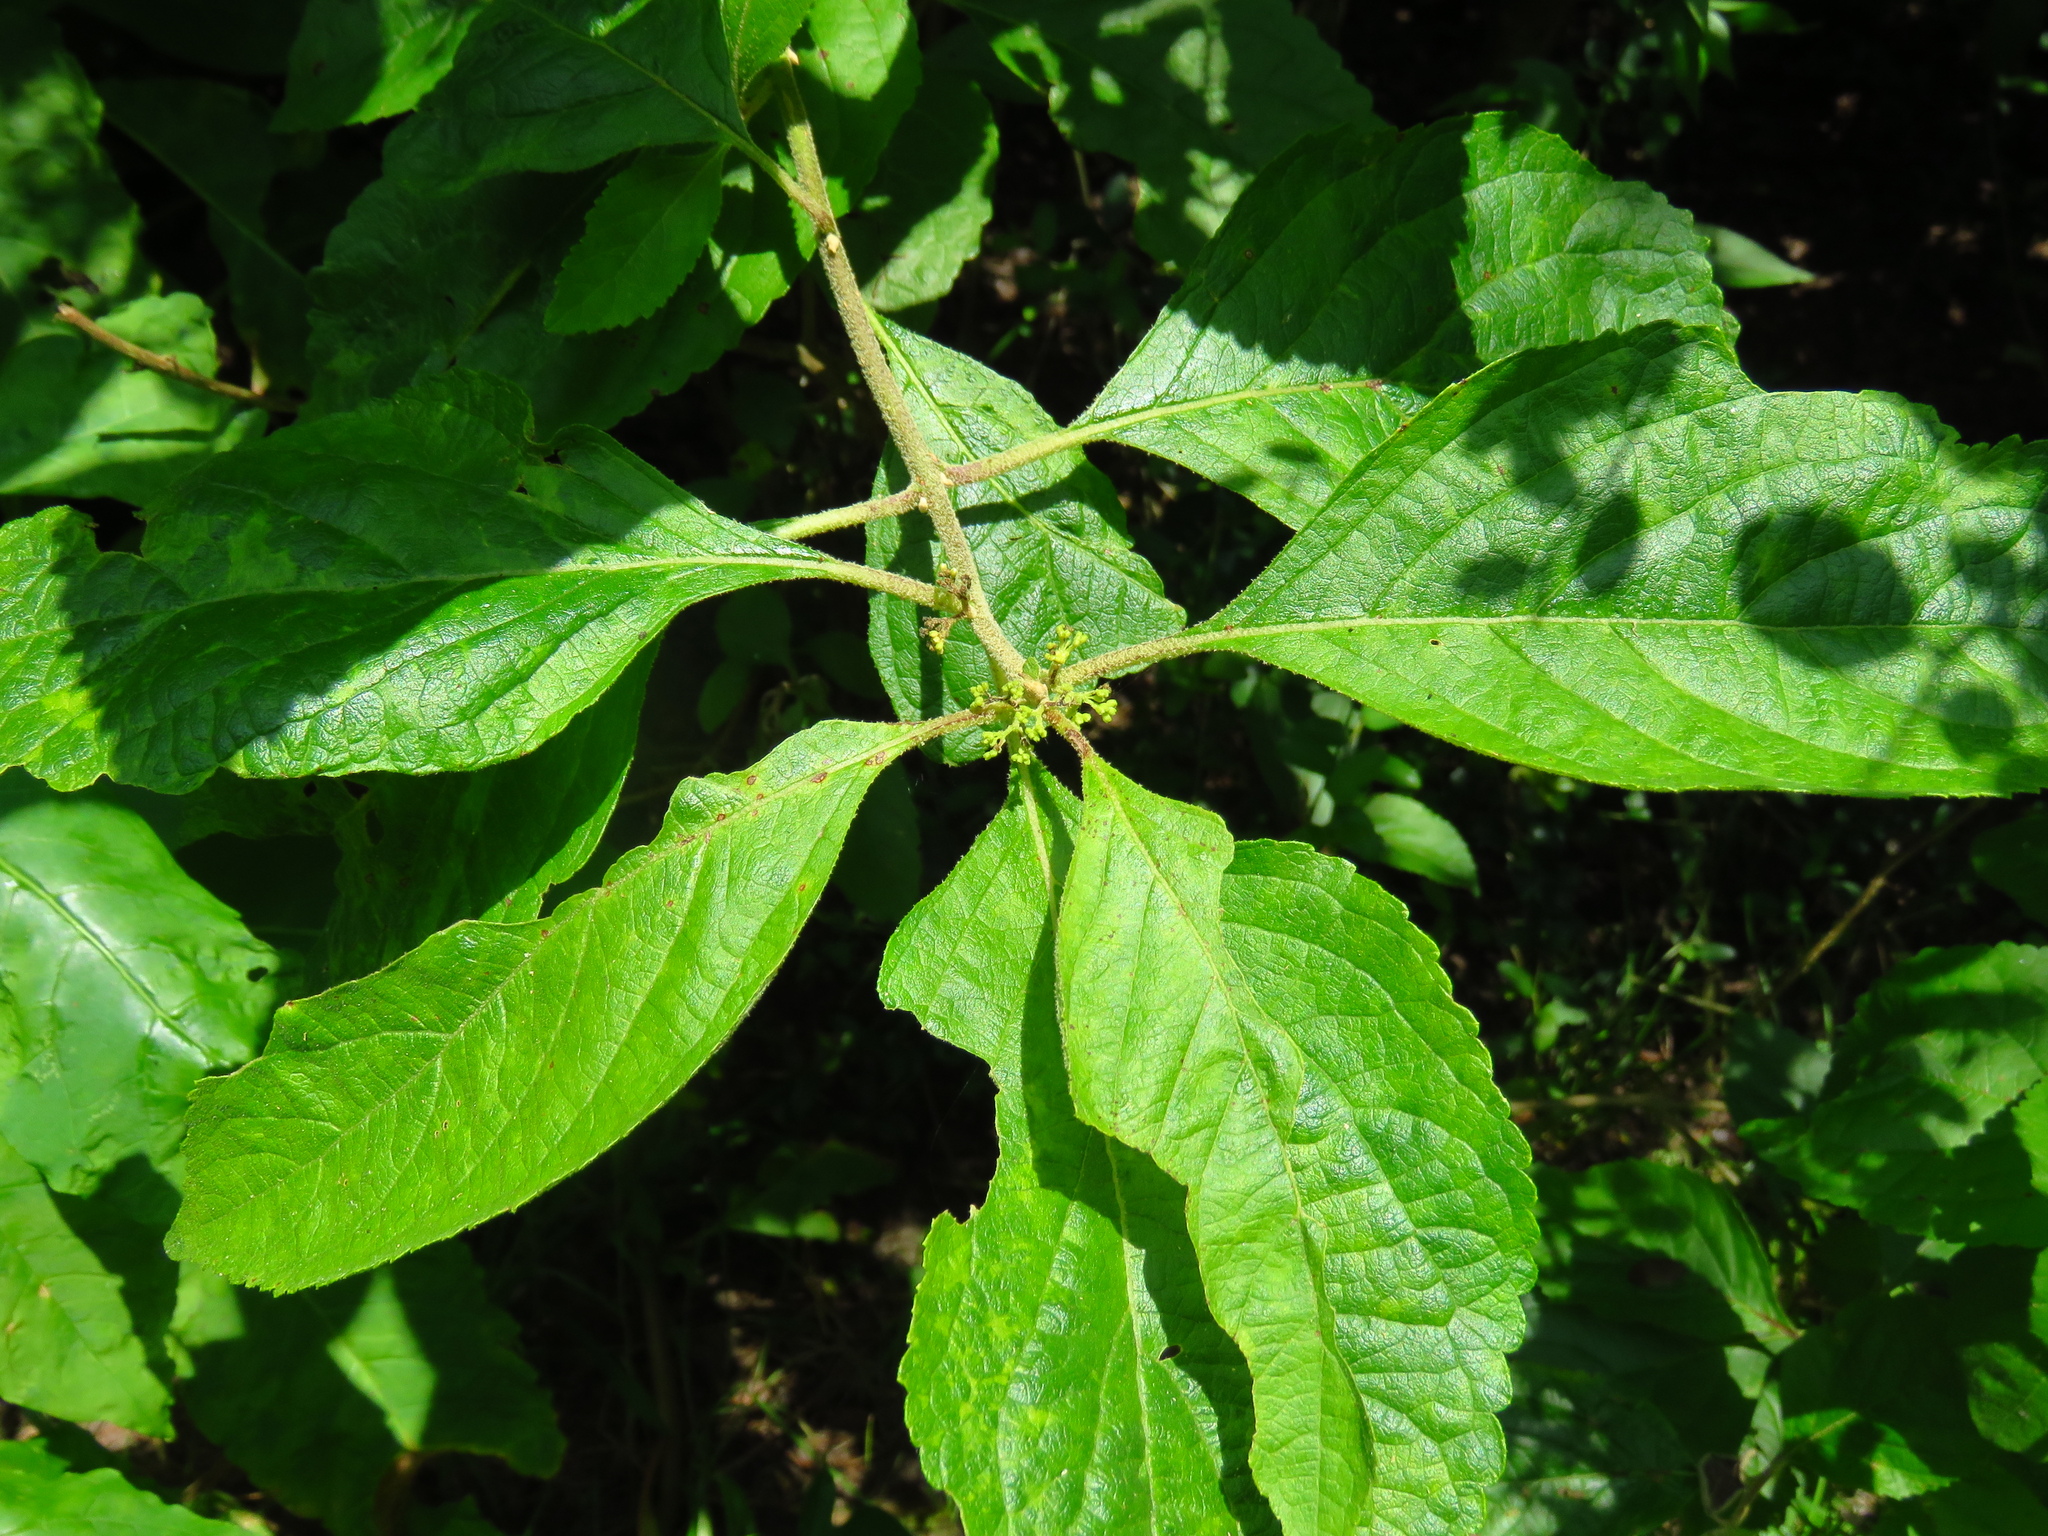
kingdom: Plantae
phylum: Tracheophyta
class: Magnoliopsida
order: Lamiales
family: Lamiaceae
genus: Callicarpa
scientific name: Callicarpa americana
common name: American beautyberry
